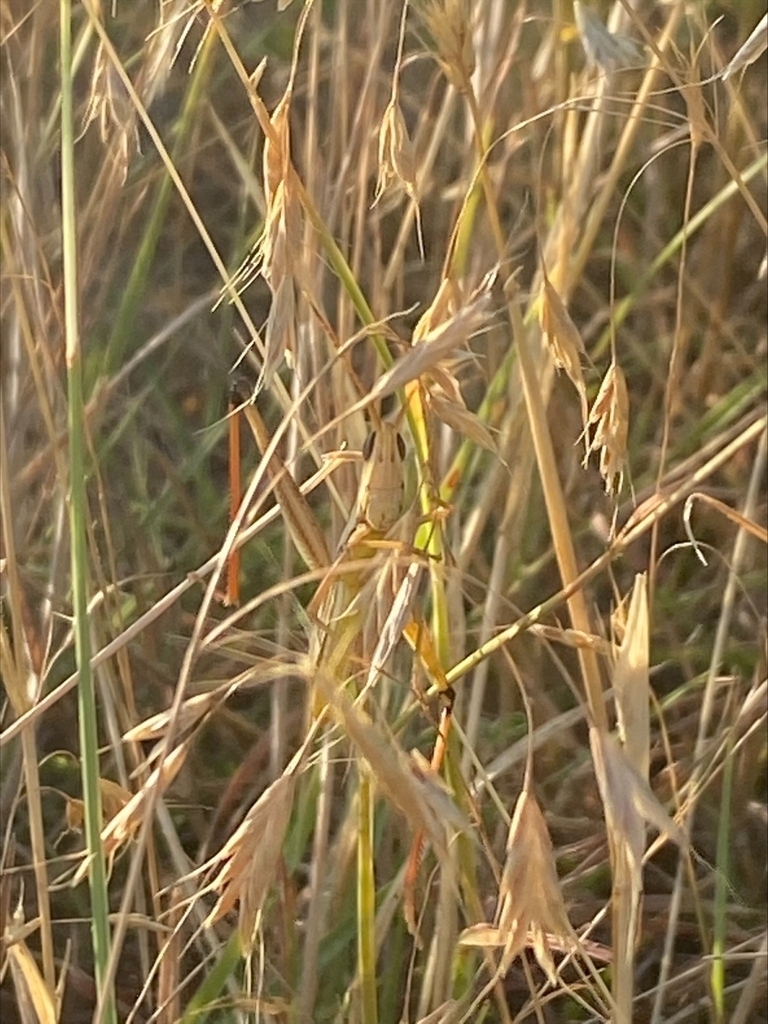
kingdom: Animalia
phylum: Arthropoda
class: Insecta
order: Orthoptera
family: Acrididae
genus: Mermiria
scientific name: Mermiria bivittata
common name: Two-striped mermiria grasshopper
